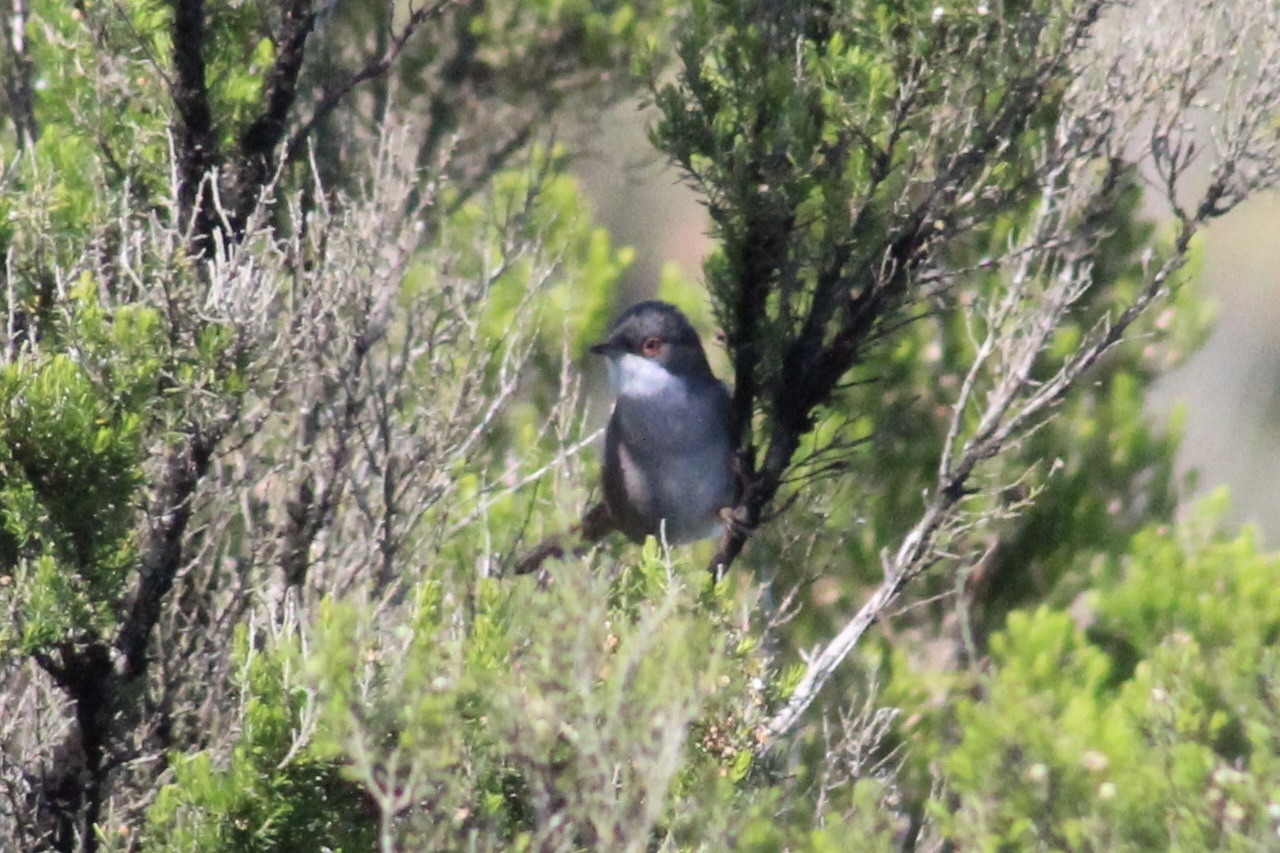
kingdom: Animalia
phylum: Chordata
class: Aves
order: Passeriformes
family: Sylviidae
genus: Curruca
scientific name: Curruca melanocephala
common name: Sardinian warbler
